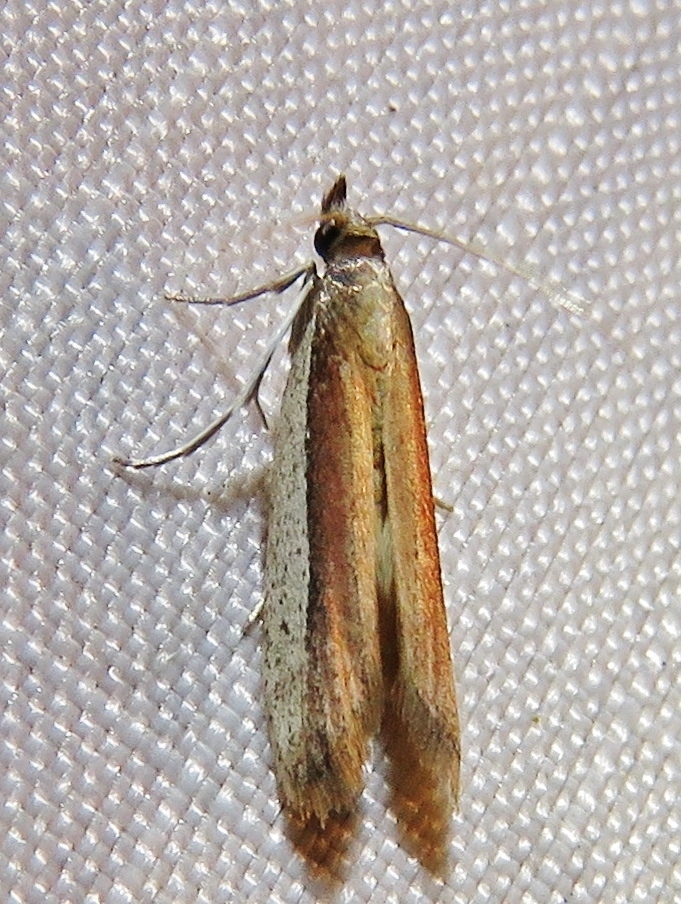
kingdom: Animalia
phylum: Arthropoda
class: Insecta
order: Lepidoptera
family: Pyralidae
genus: Tampa
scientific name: Tampa dimediatella
